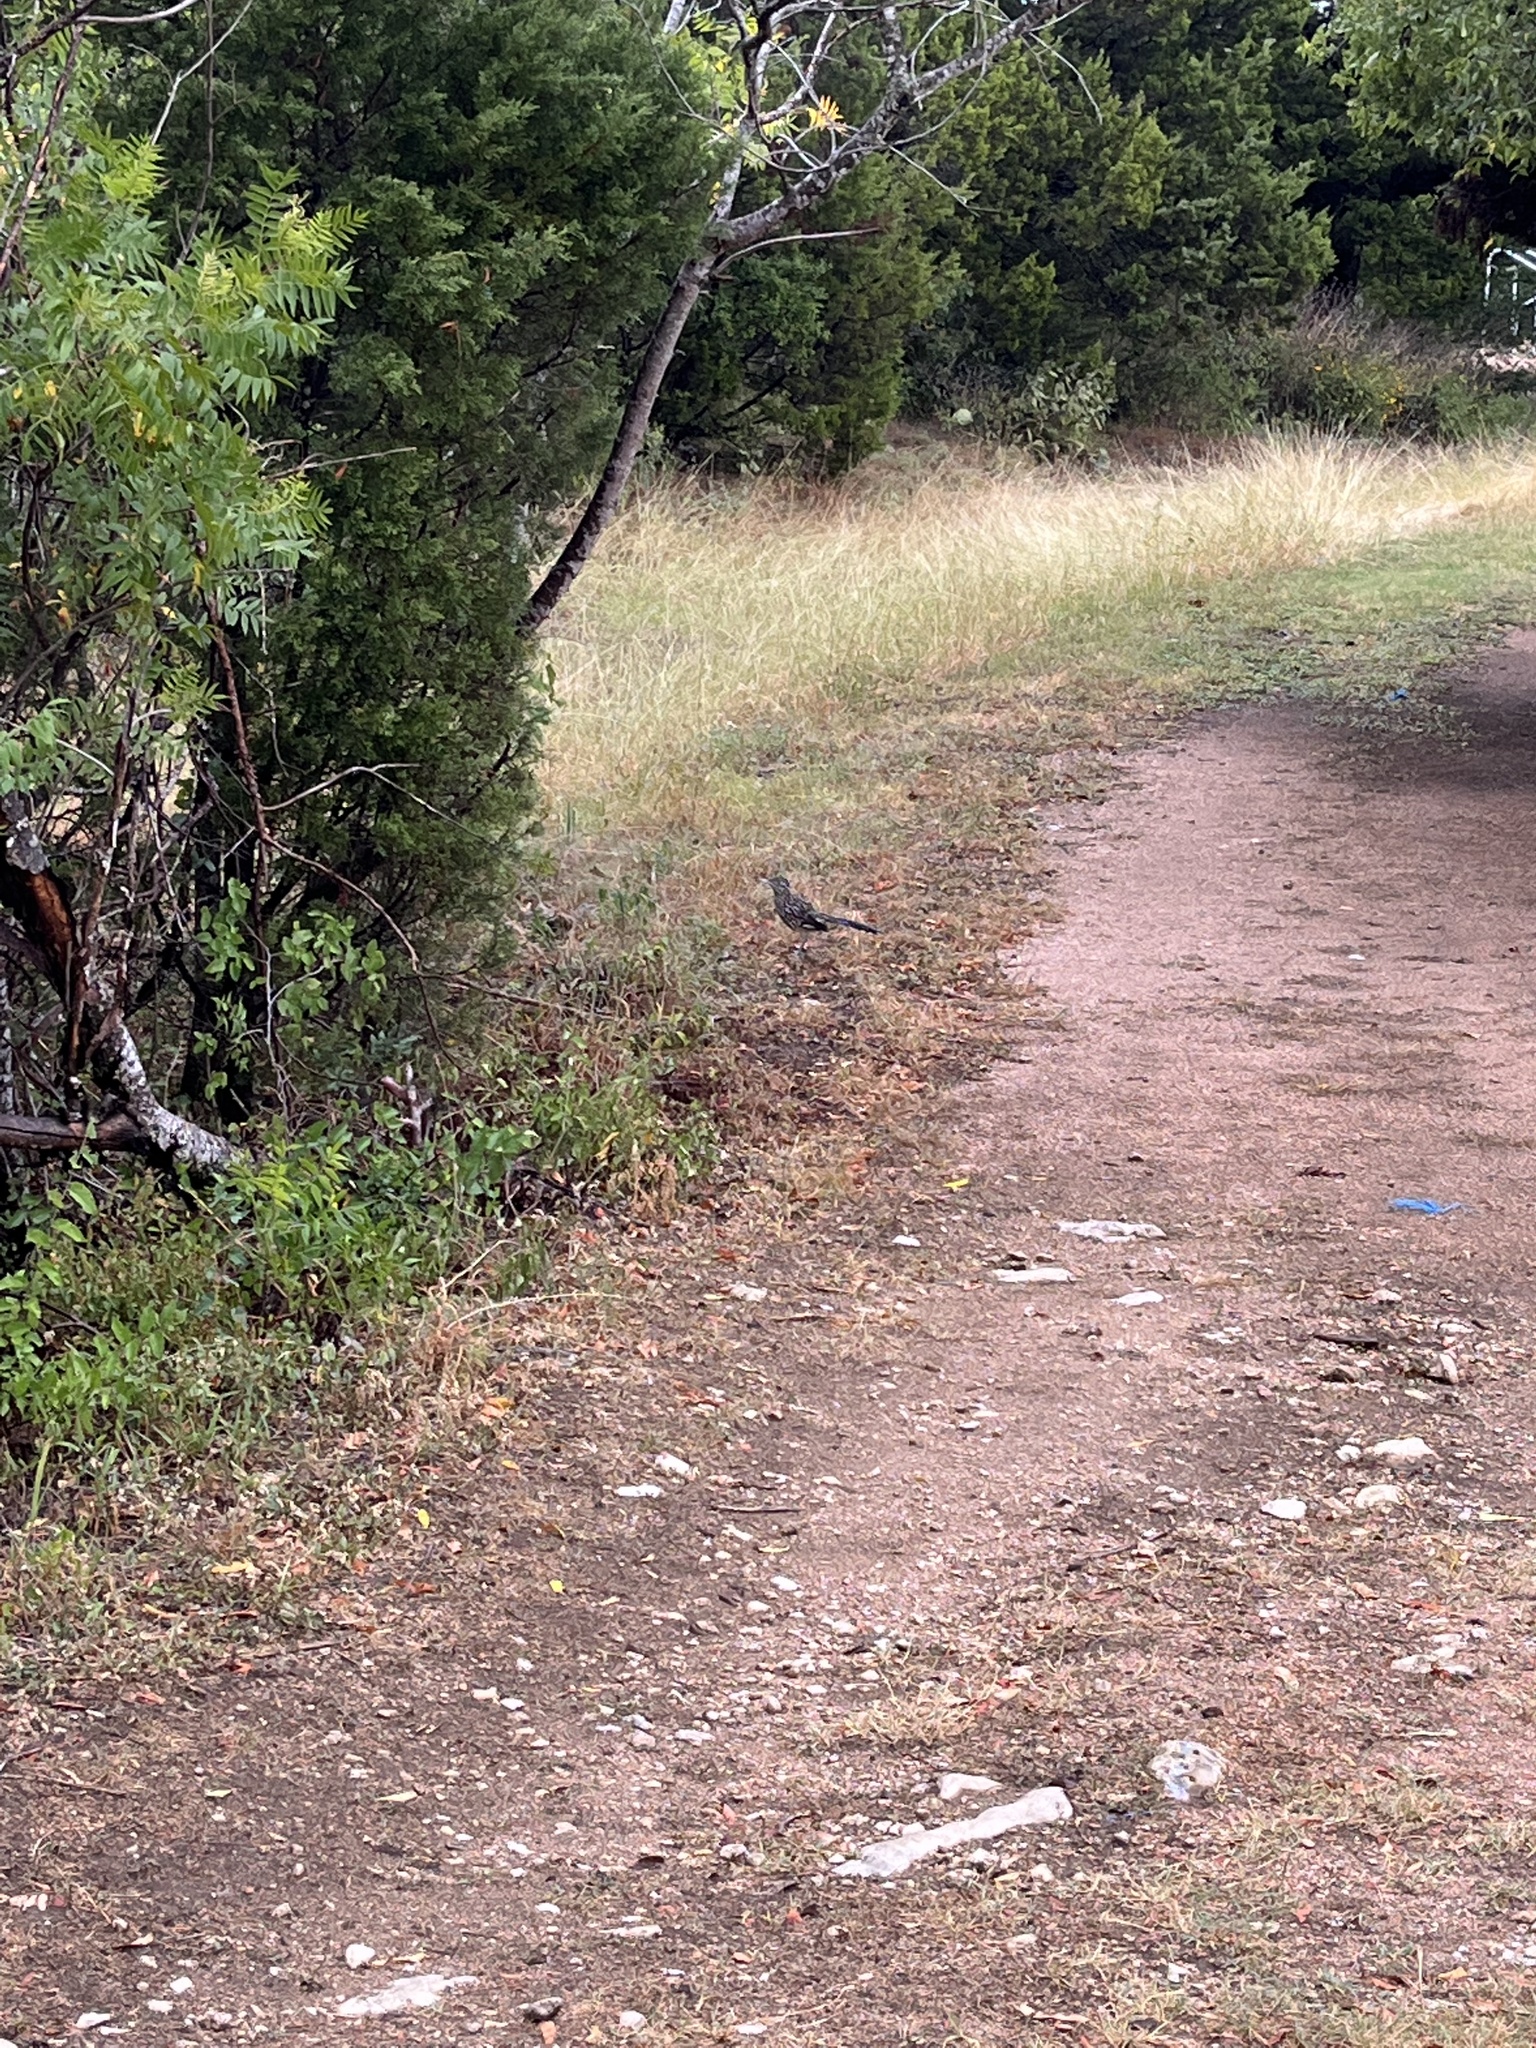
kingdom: Animalia
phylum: Chordata
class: Aves
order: Cuculiformes
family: Cuculidae
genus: Geococcyx
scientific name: Geococcyx californianus
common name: Greater roadrunner
